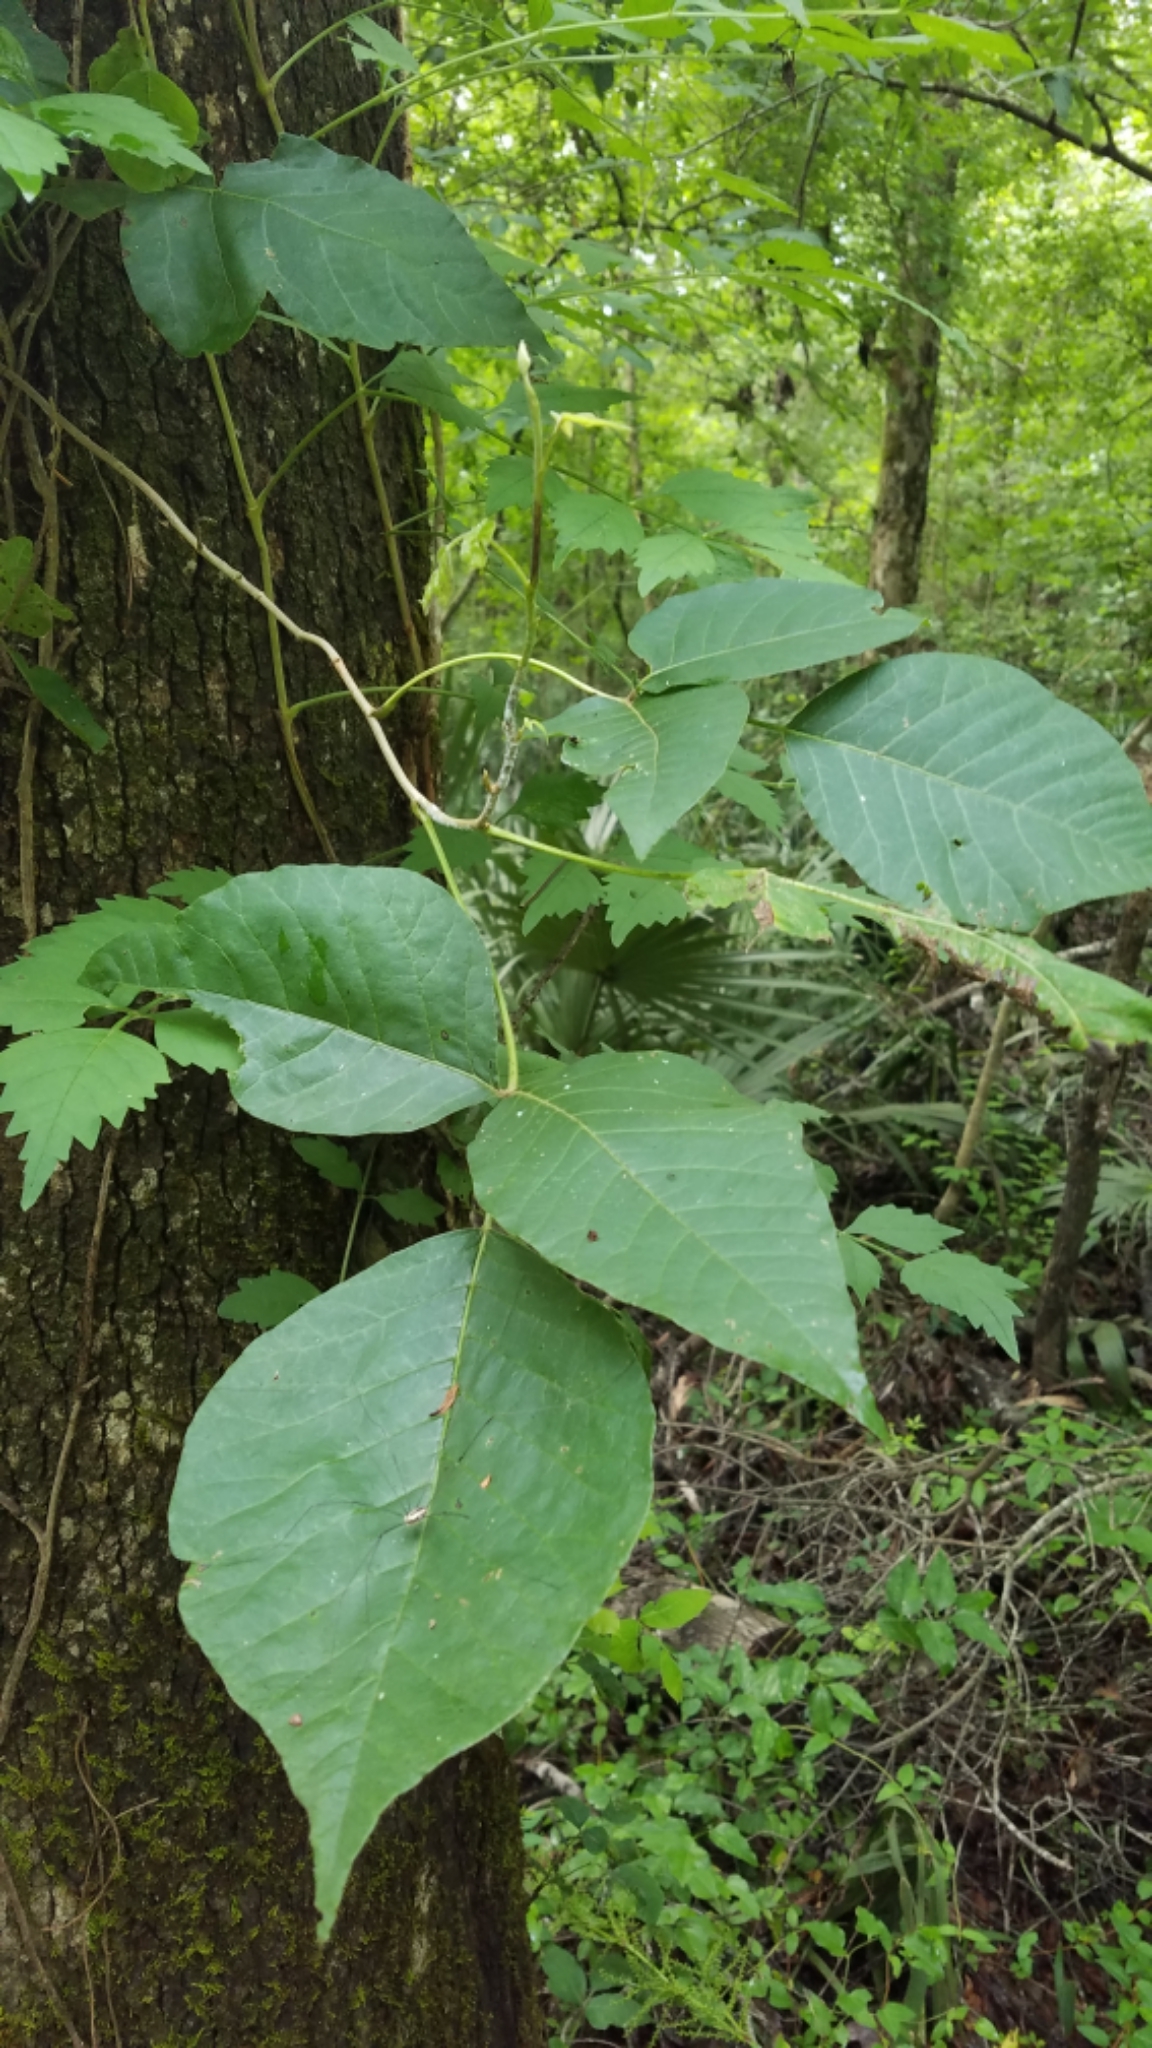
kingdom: Plantae
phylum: Tracheophyta
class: Magnoliopsida
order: Sapindales
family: Anacardiaceae
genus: Toxicodendron
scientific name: Toxicodendron radicans
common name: Poison ivy
